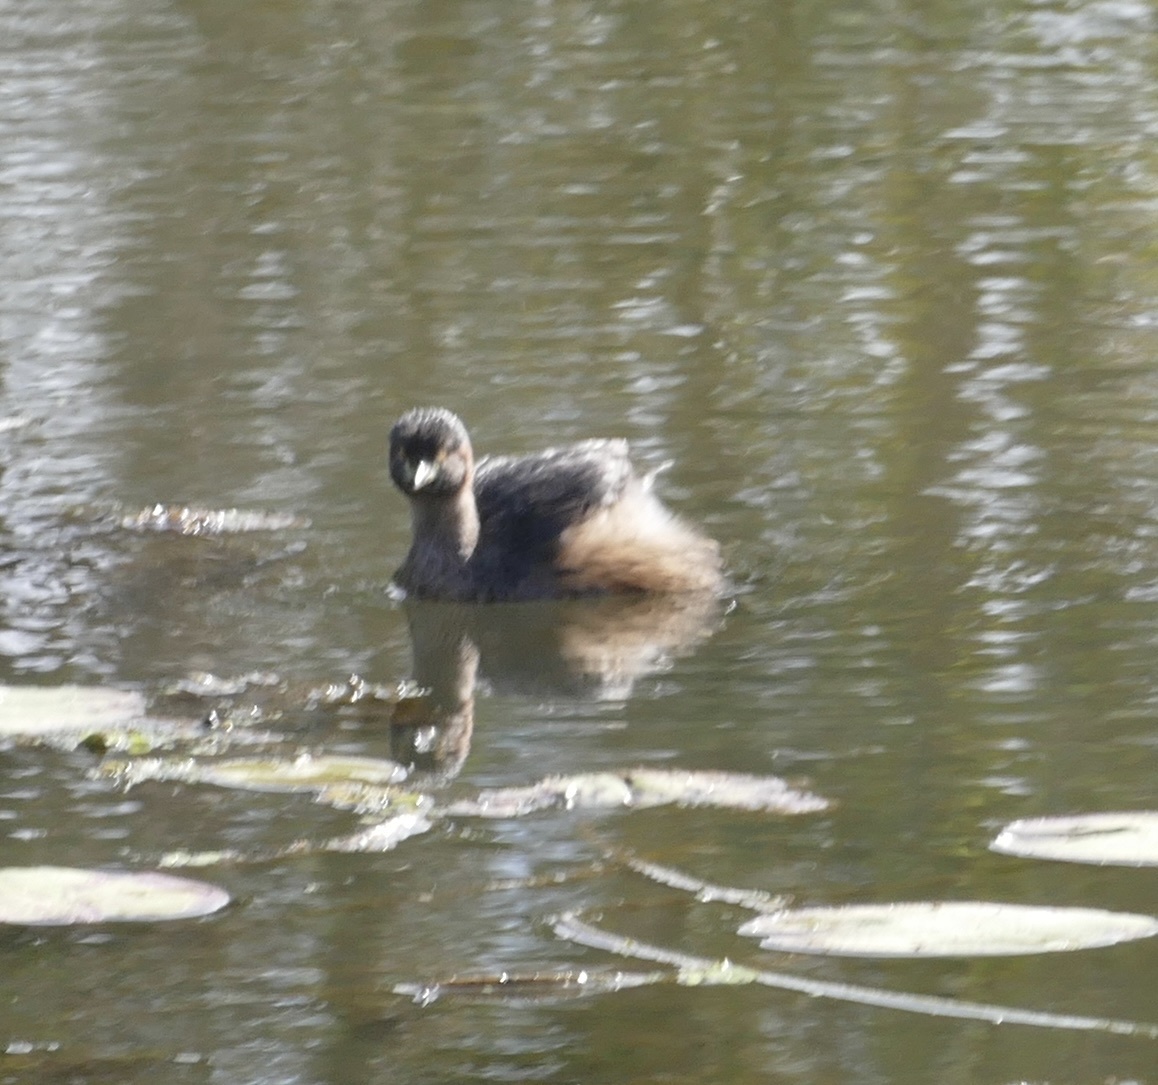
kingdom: Animalia
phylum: Chordata
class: Aves
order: Podicipediformes
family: Podicipedidae
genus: Tachybaptus
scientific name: Tachybaptus novaehollandiae
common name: Australasian grebe
